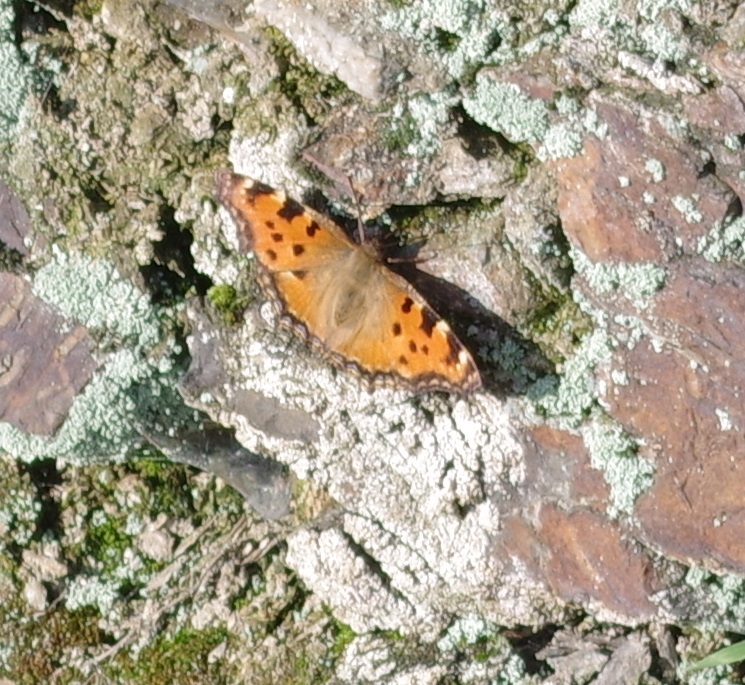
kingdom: Animalia
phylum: Arthropoda
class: Insecta
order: Lepidoptera
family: Nymphalidae
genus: Nymphalis
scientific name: Nymphalis polychloros
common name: Large tortoiseshell
